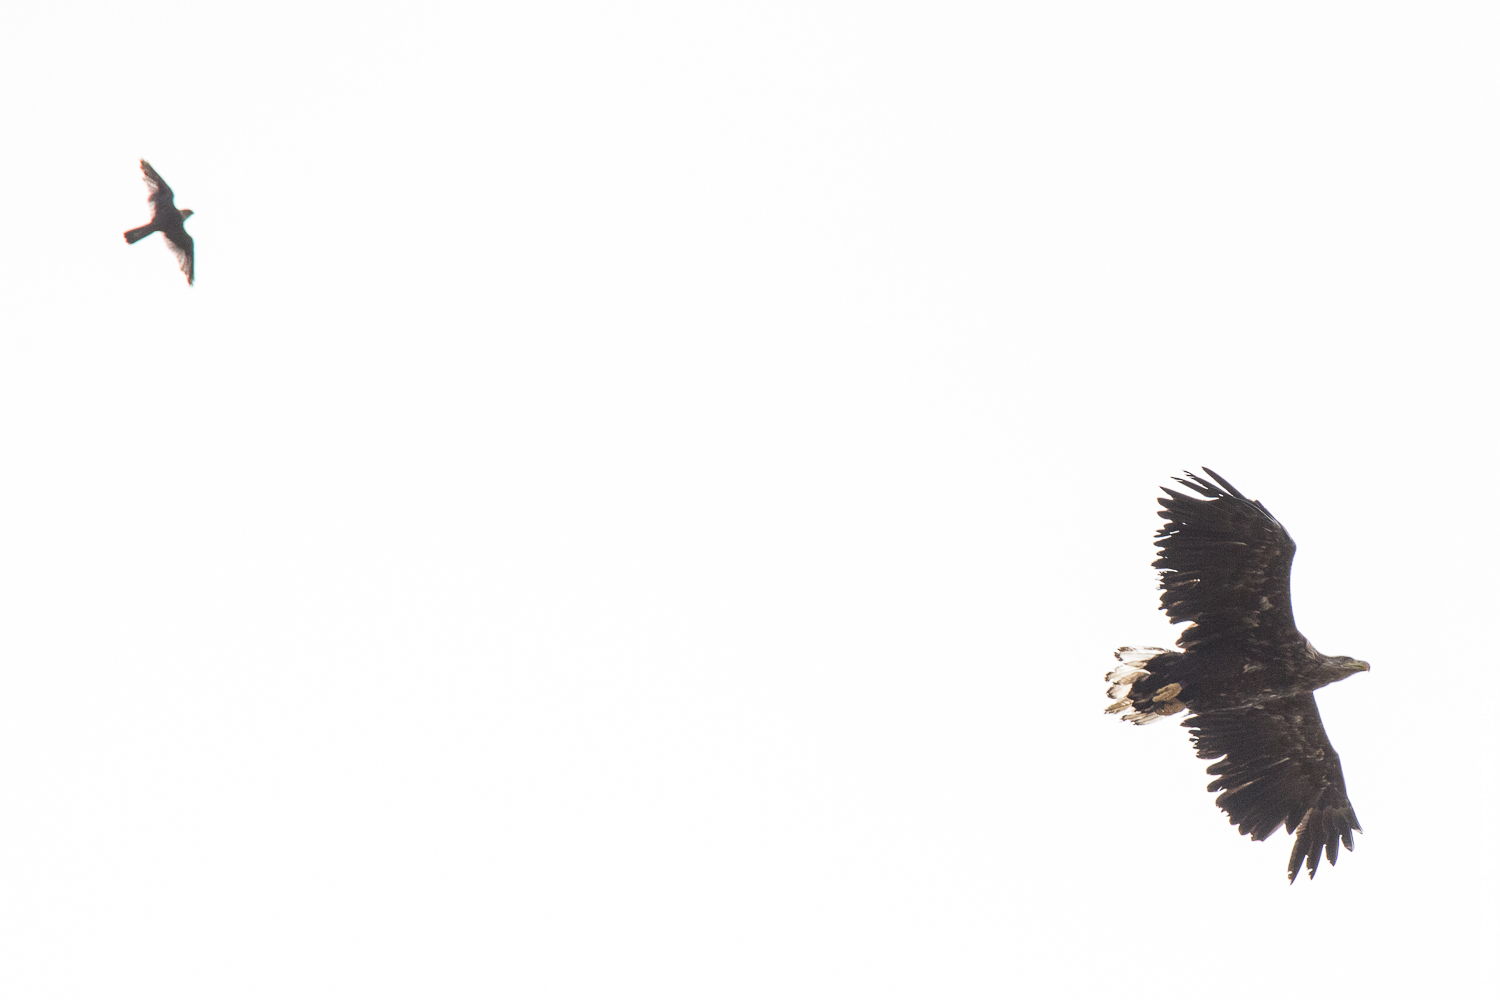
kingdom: Animalia
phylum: Chordata
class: Aves
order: Falconiformes
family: Falconidae
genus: Falco
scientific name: Falco columbarius
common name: Merlin
